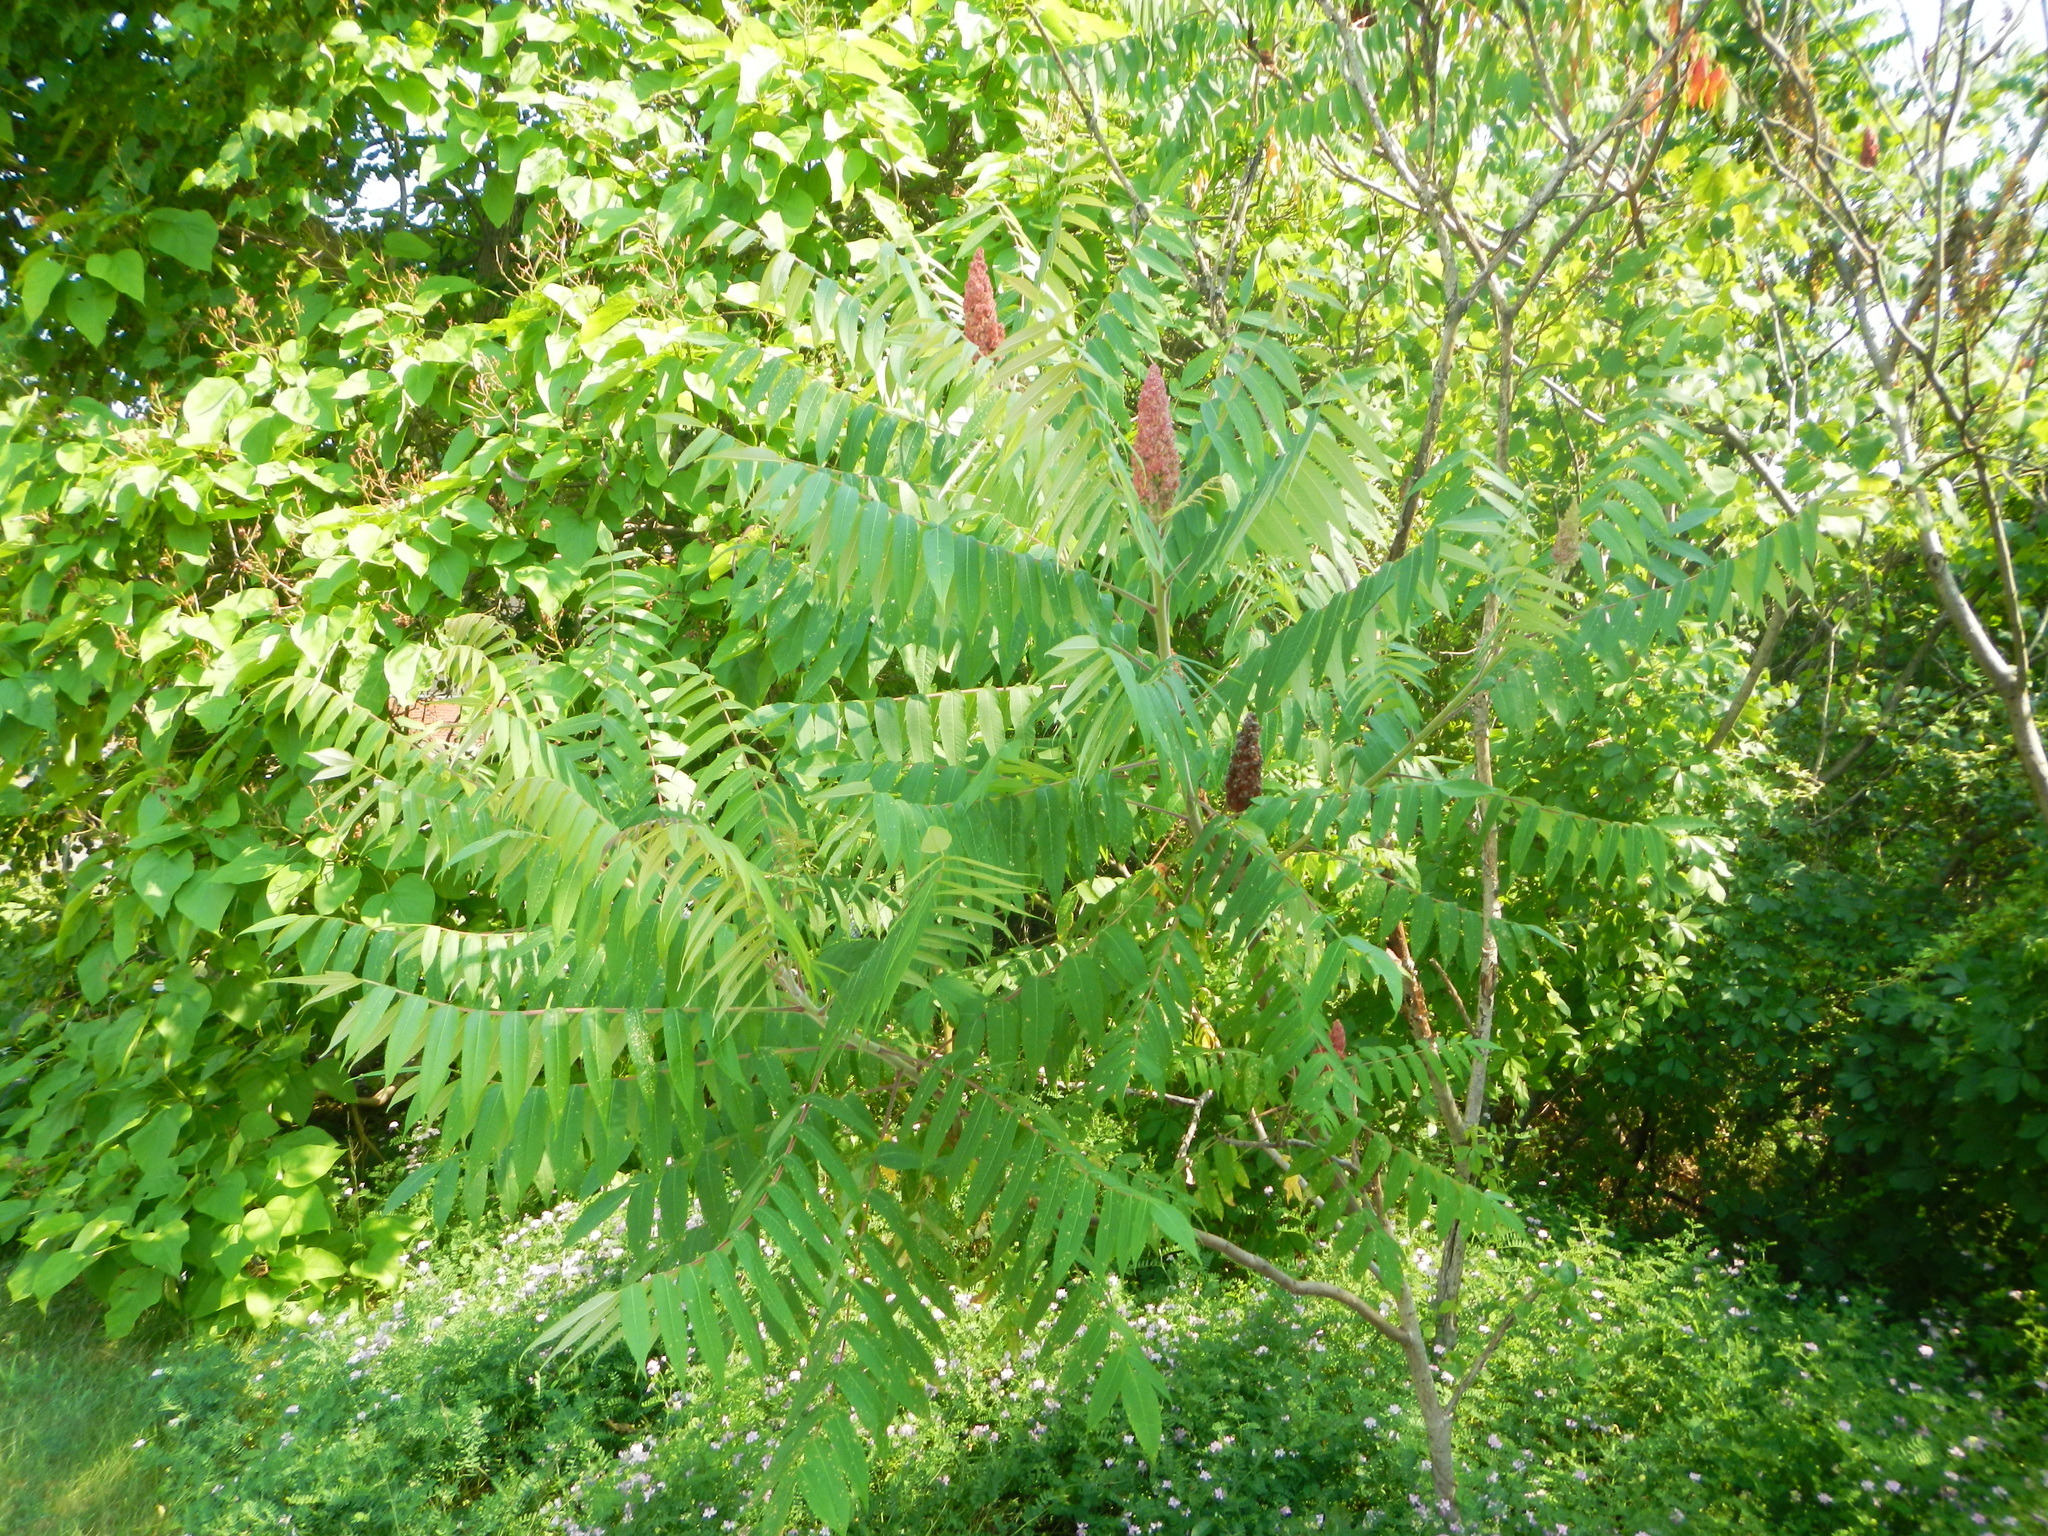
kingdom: Plantae
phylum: Tracheophyta
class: Magnoliopsida
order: Sapindales
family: Anacardiaceae
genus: Rhus
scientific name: Rhus typhina
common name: Staghorn sumac
